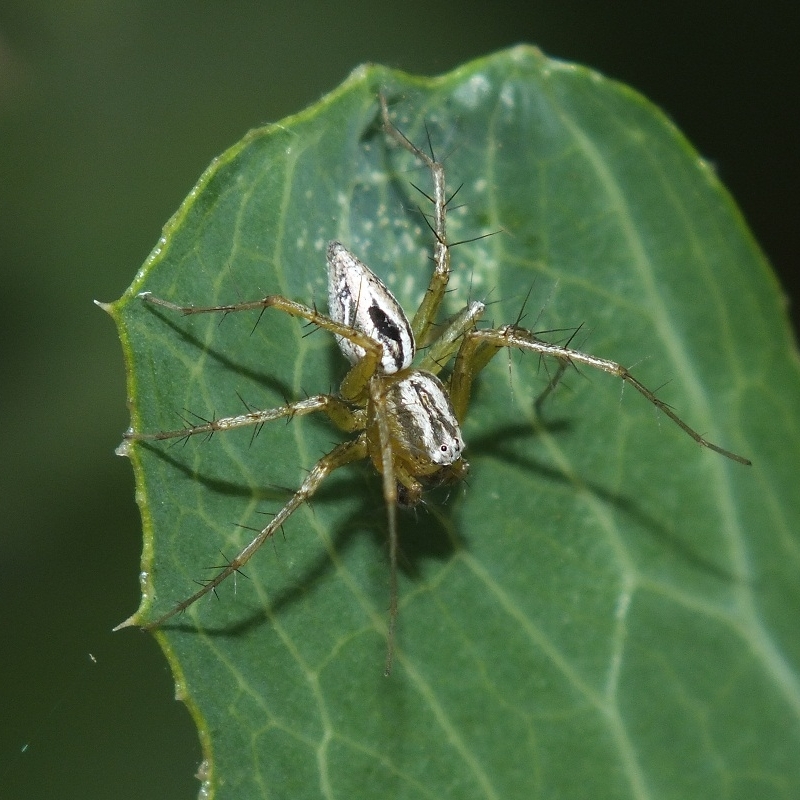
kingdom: Animalia
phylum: Arthropoda
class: Arachnida
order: Araneae
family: Oxyopidae
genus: Oxyopes
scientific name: Oxyopes lineatus
